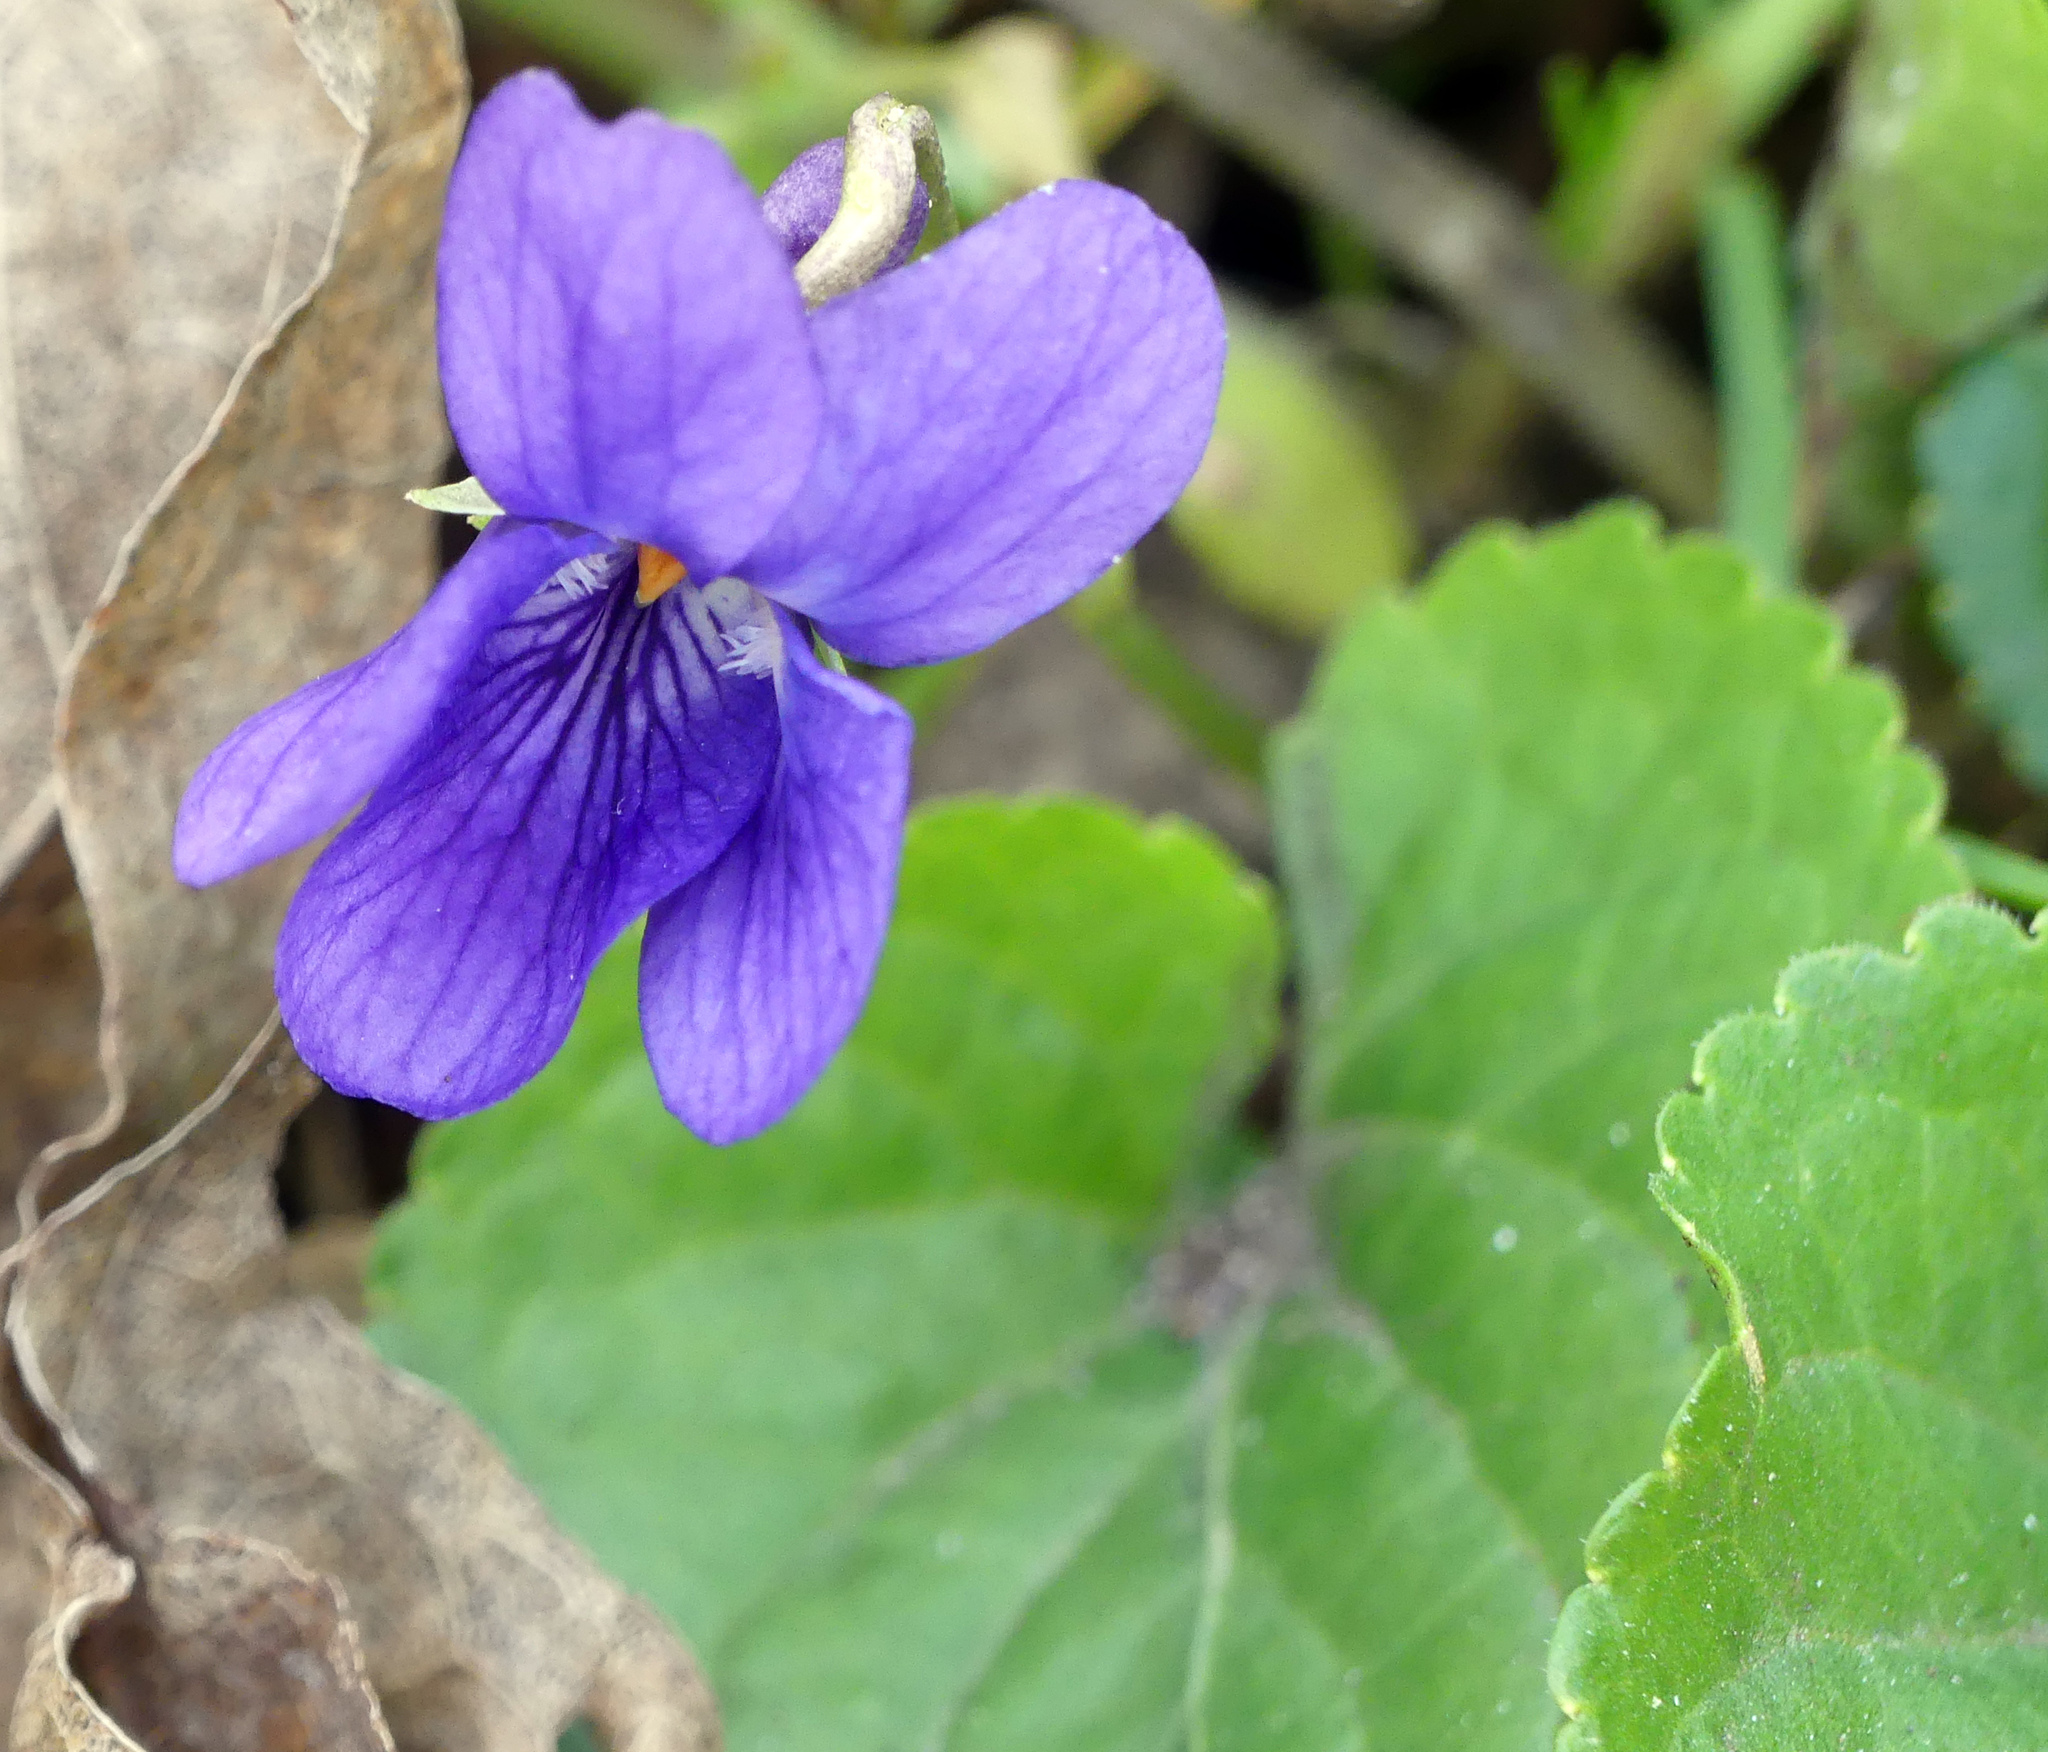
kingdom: Plantae
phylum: Tracheophyta
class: Magnoliopsida
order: Malpighiales
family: Violaceae
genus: Viola
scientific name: Viola odorata
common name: Sweet violet
